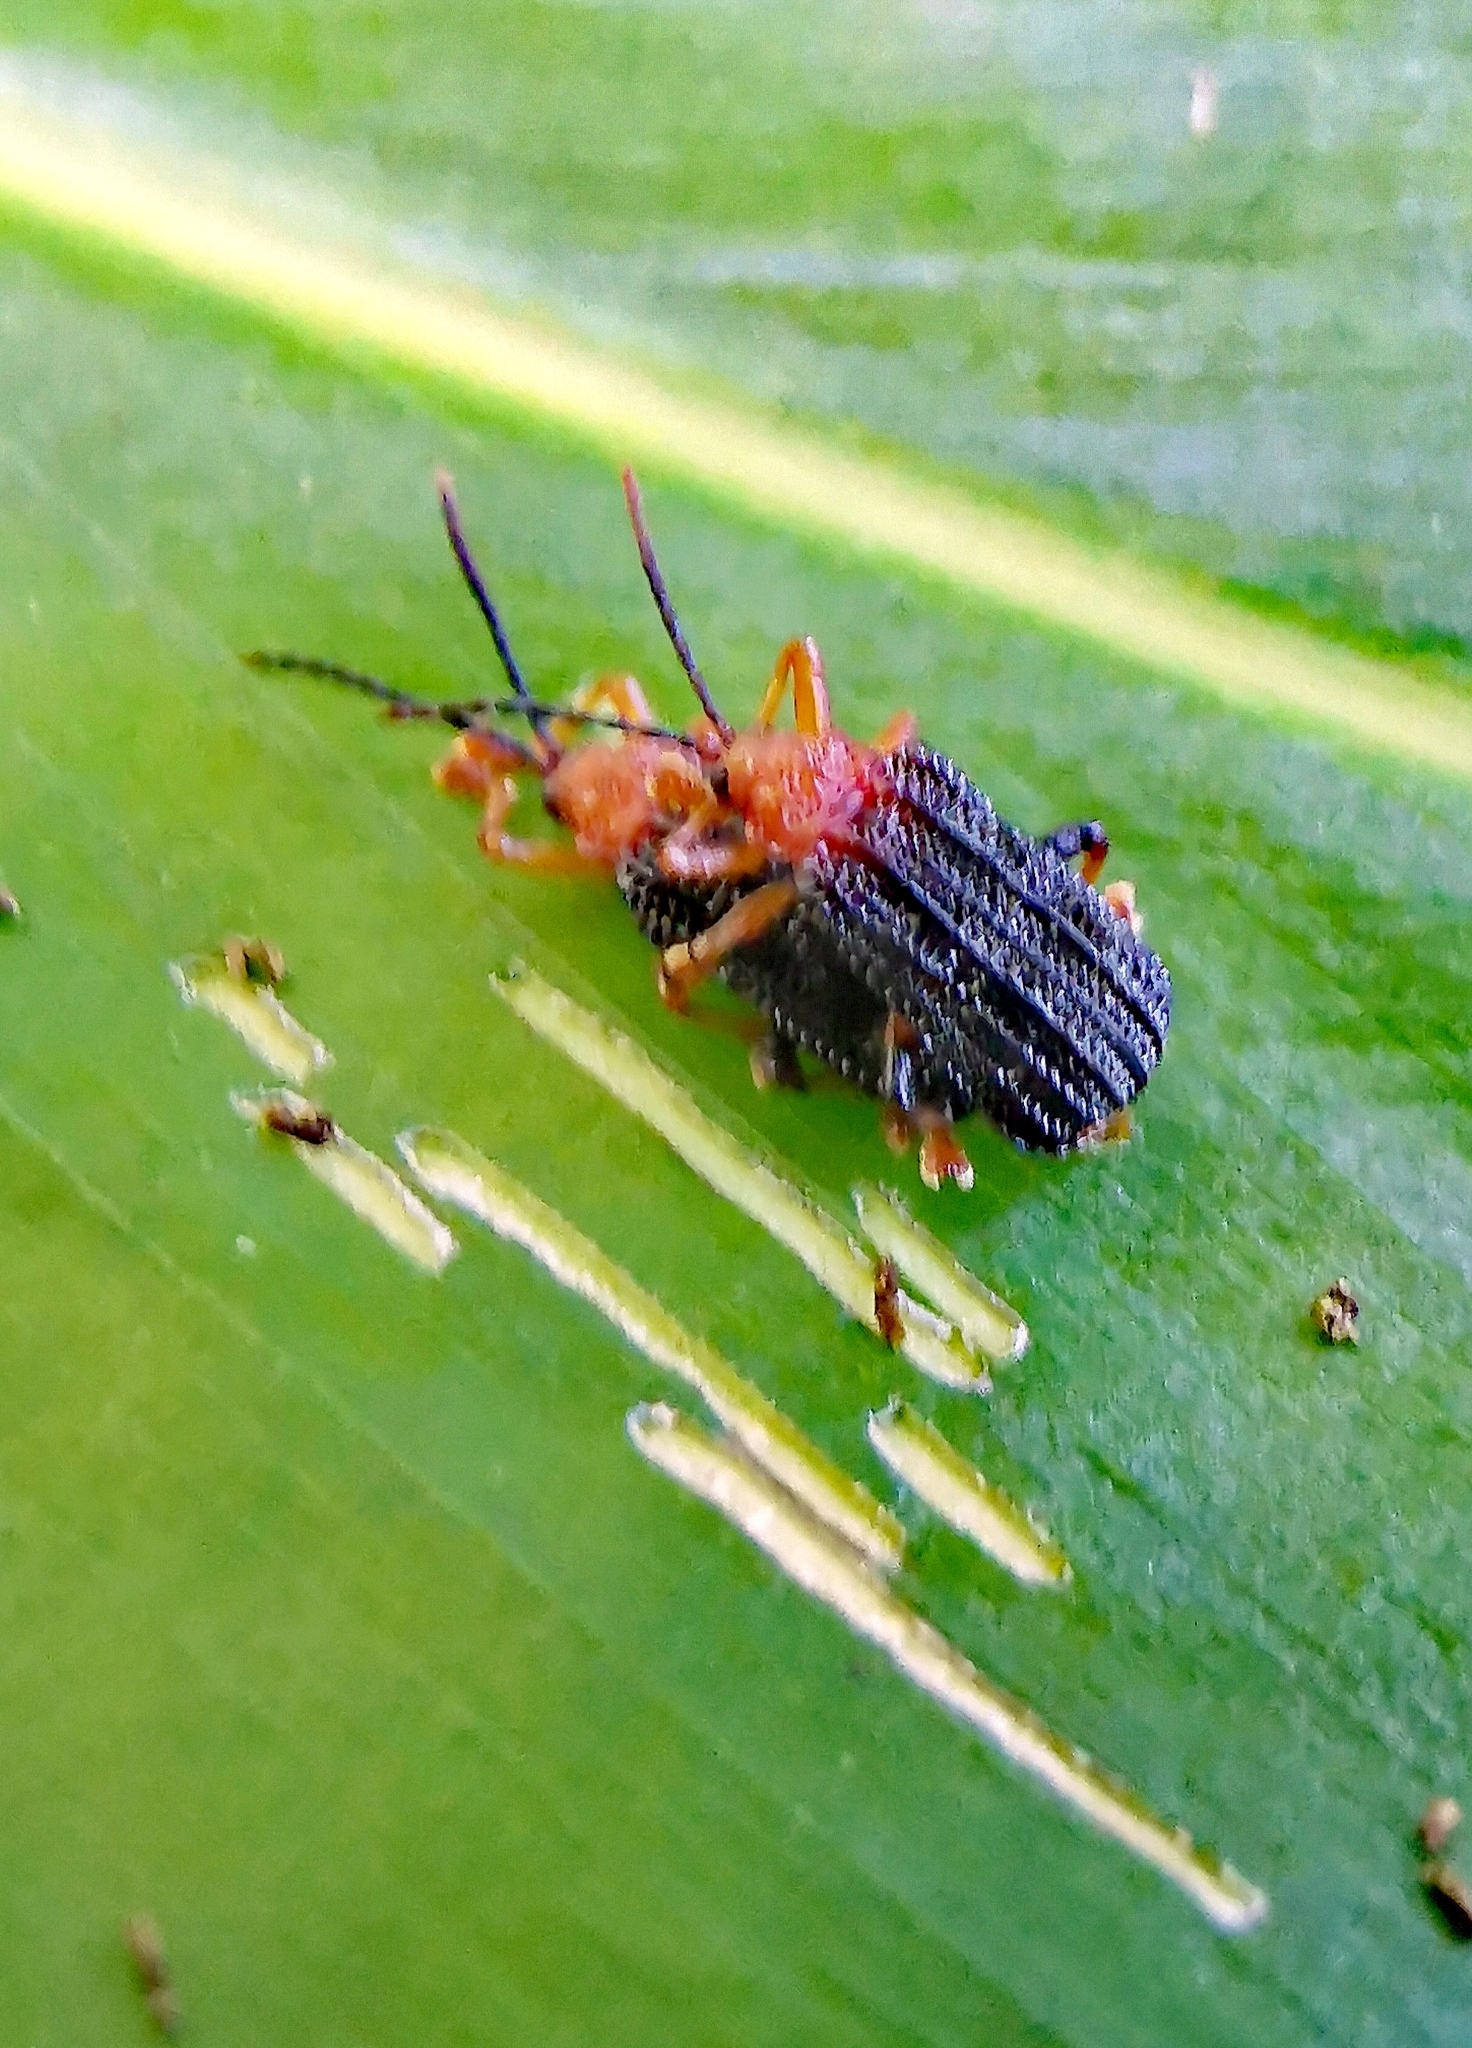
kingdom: Animalia
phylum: Arthropoda
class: Insecta
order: Coleoptera
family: Chrysomelidae
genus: Gonophora
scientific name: Gonophora haemorrhoidalis
